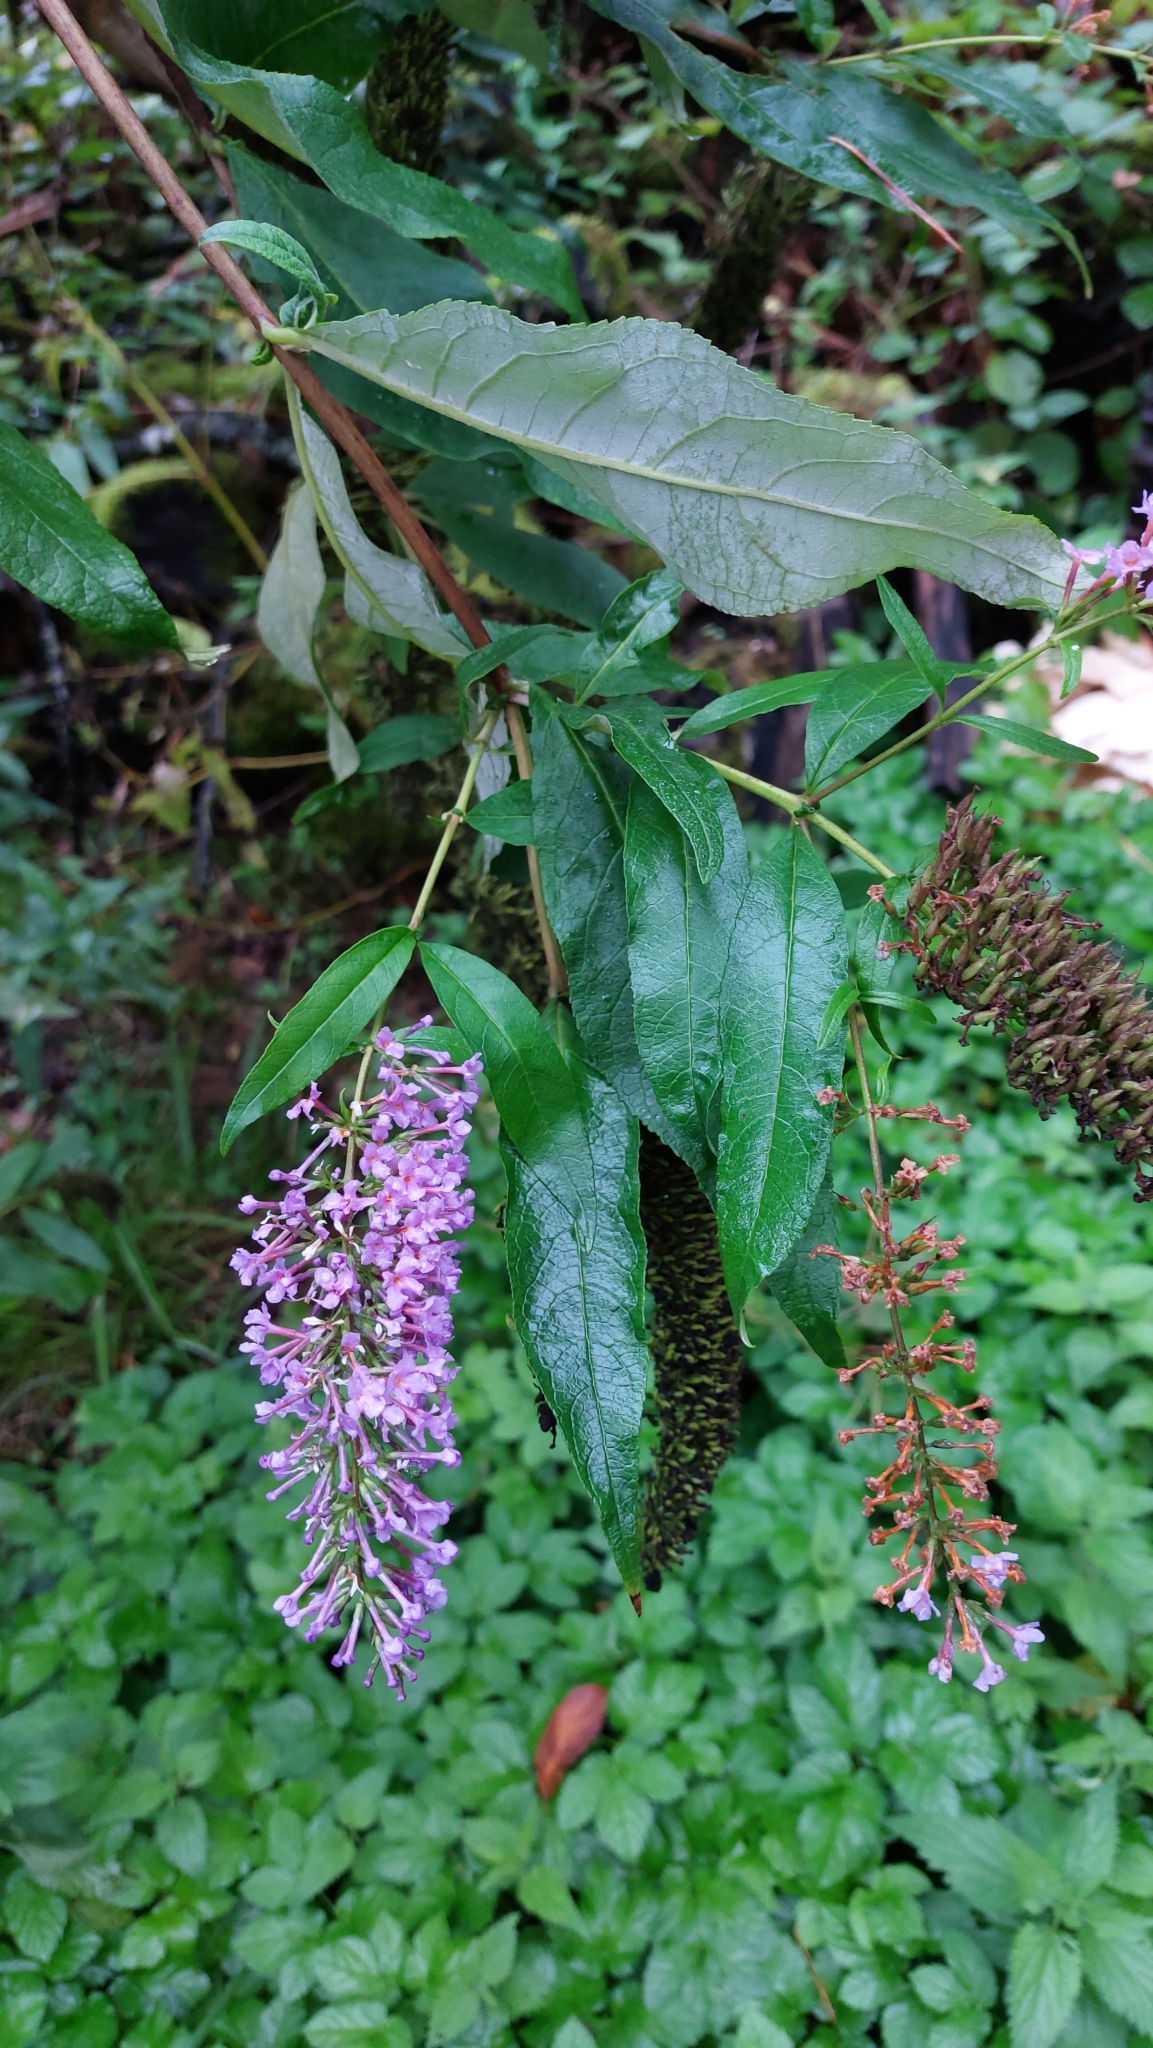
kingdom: Plantae
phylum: Tracheophyta
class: Magnoliopsida
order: Lamiales
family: Scrophulariaceae
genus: Buddleja
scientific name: Buddleja davidii
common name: Butterfly-bush
